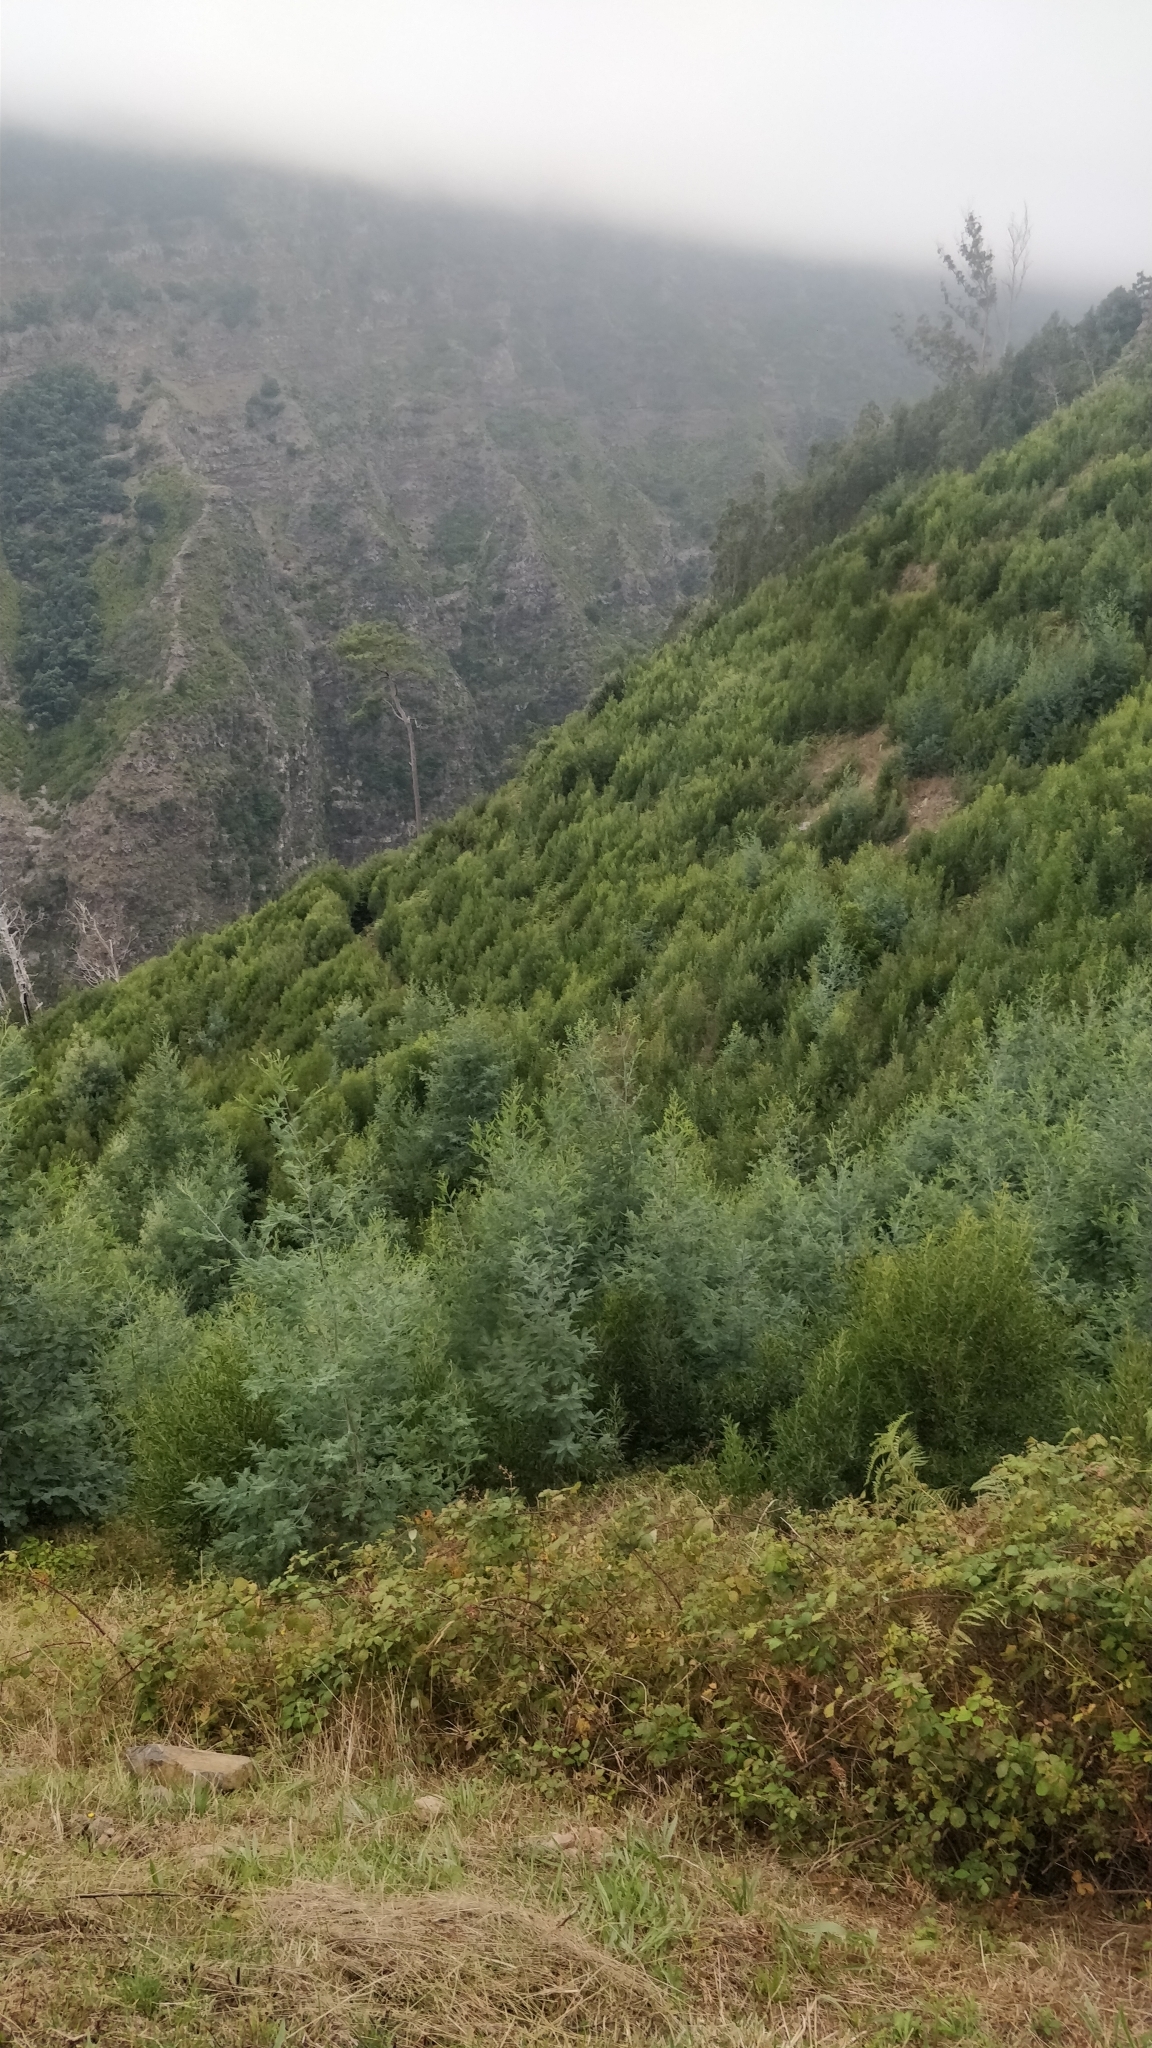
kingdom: Plantae
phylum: Tracheophyta
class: Magnoliopsida
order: Fabales
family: Fabaceae
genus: Acacia
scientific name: Acacia mearnsii
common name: Black wattle
